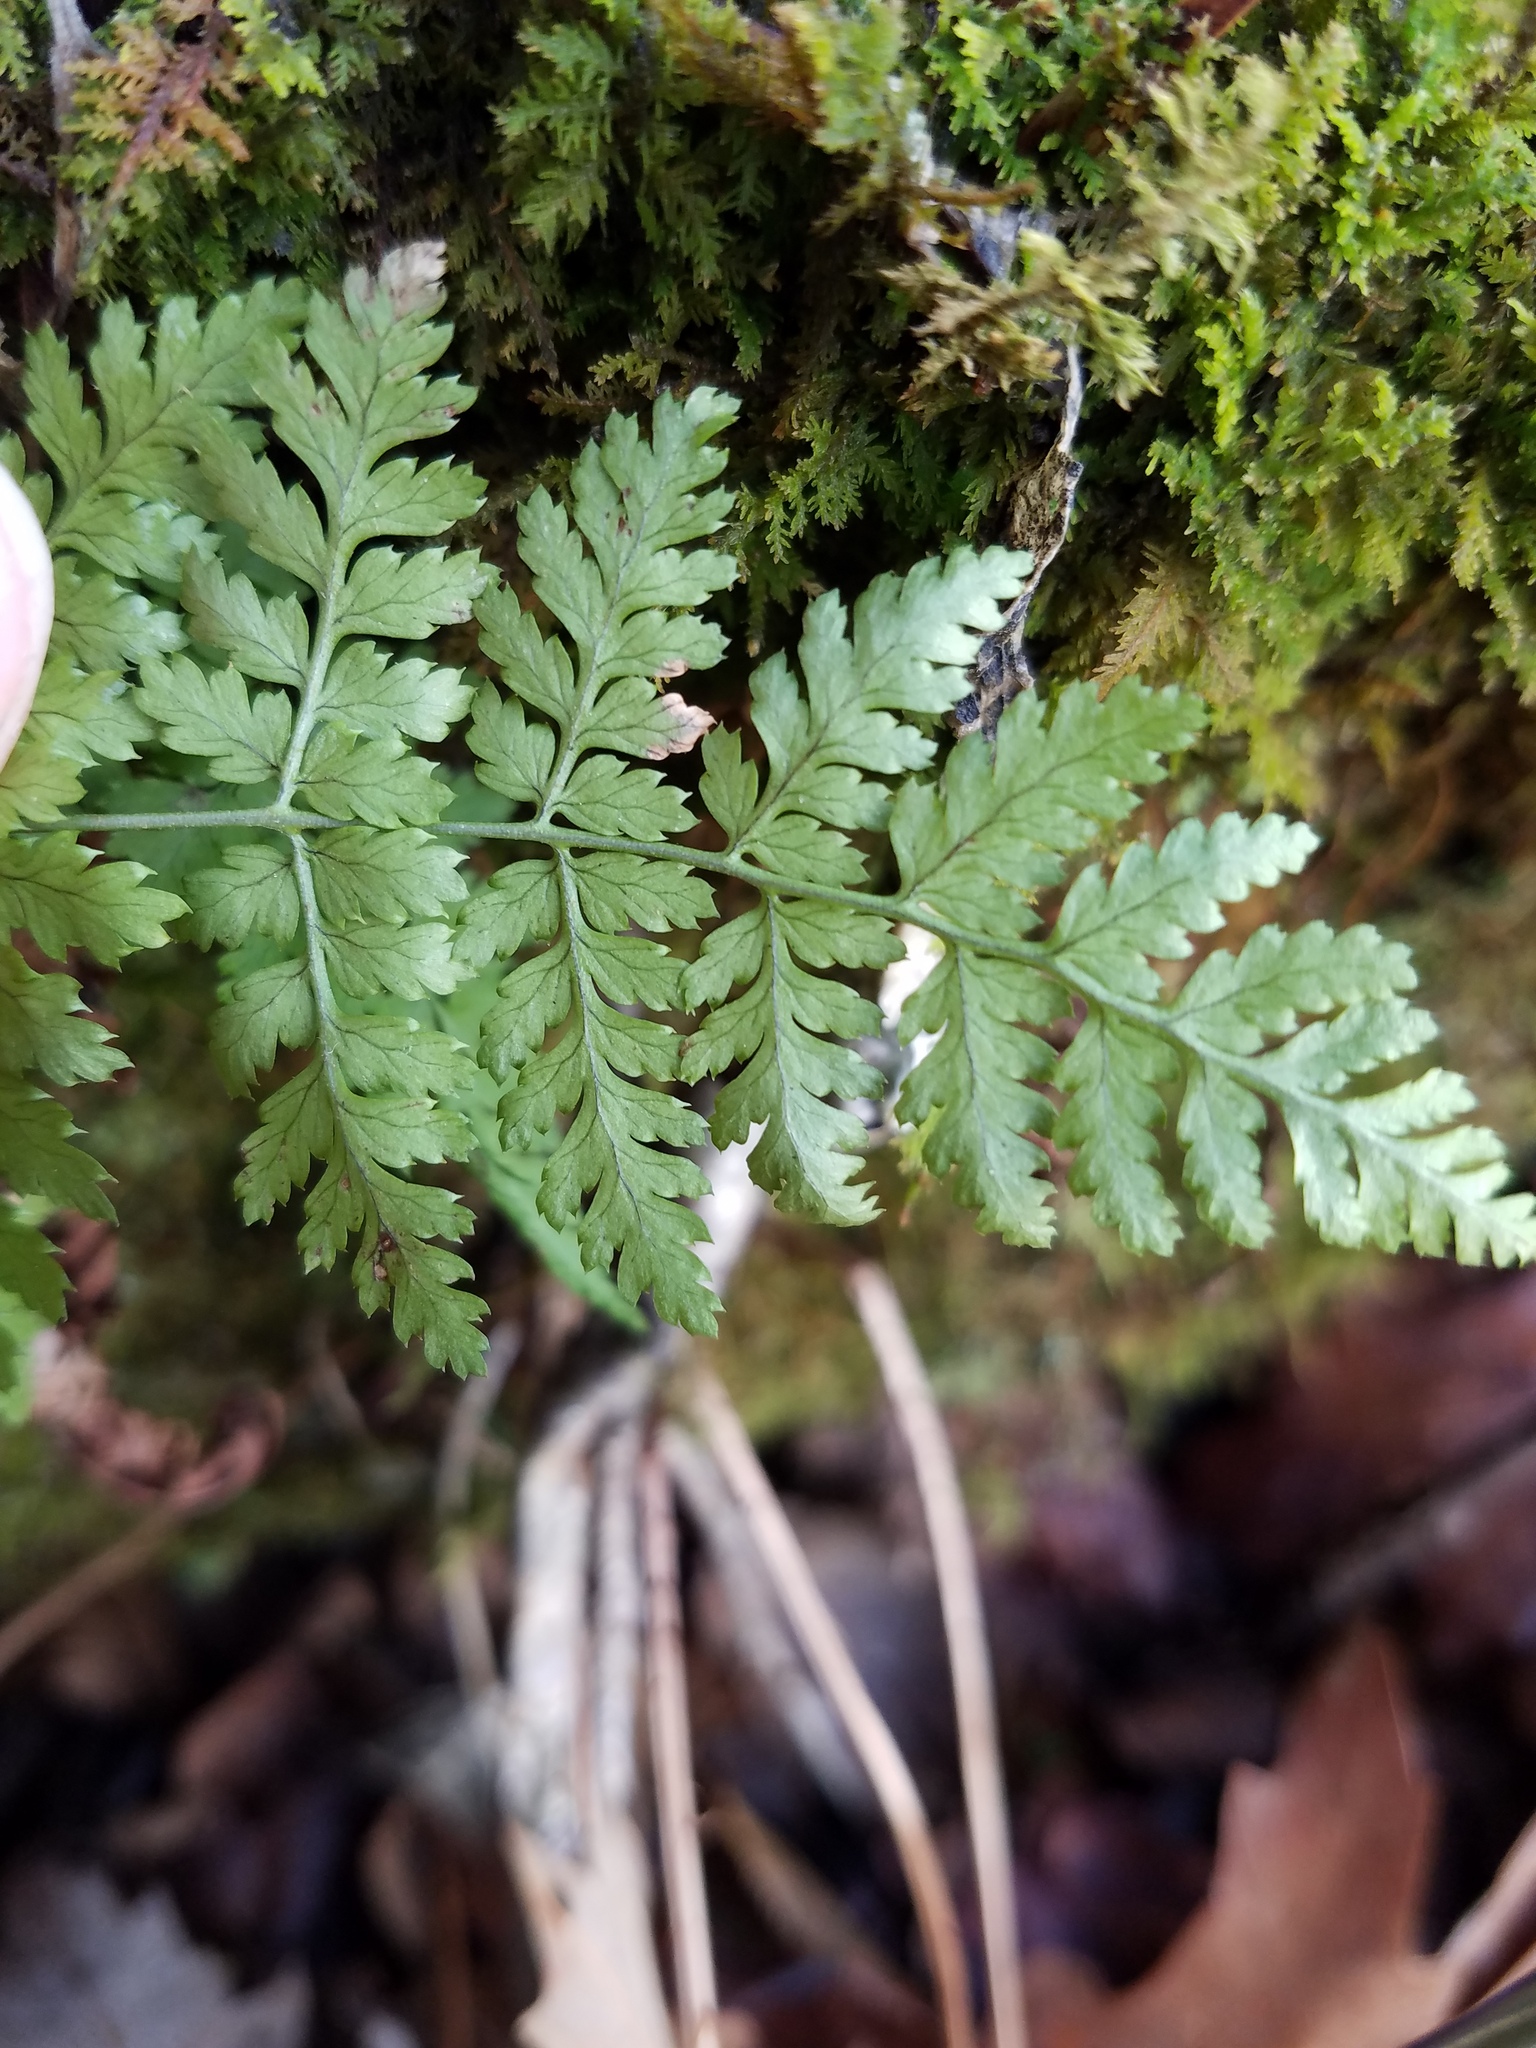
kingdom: Plantae
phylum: Tracheophyta
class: Polypodiopsida
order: Polypodiales
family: Dryopteridaceae
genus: Dryopteris
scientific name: Dryopteris intermedia
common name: Evergreen wood fern
